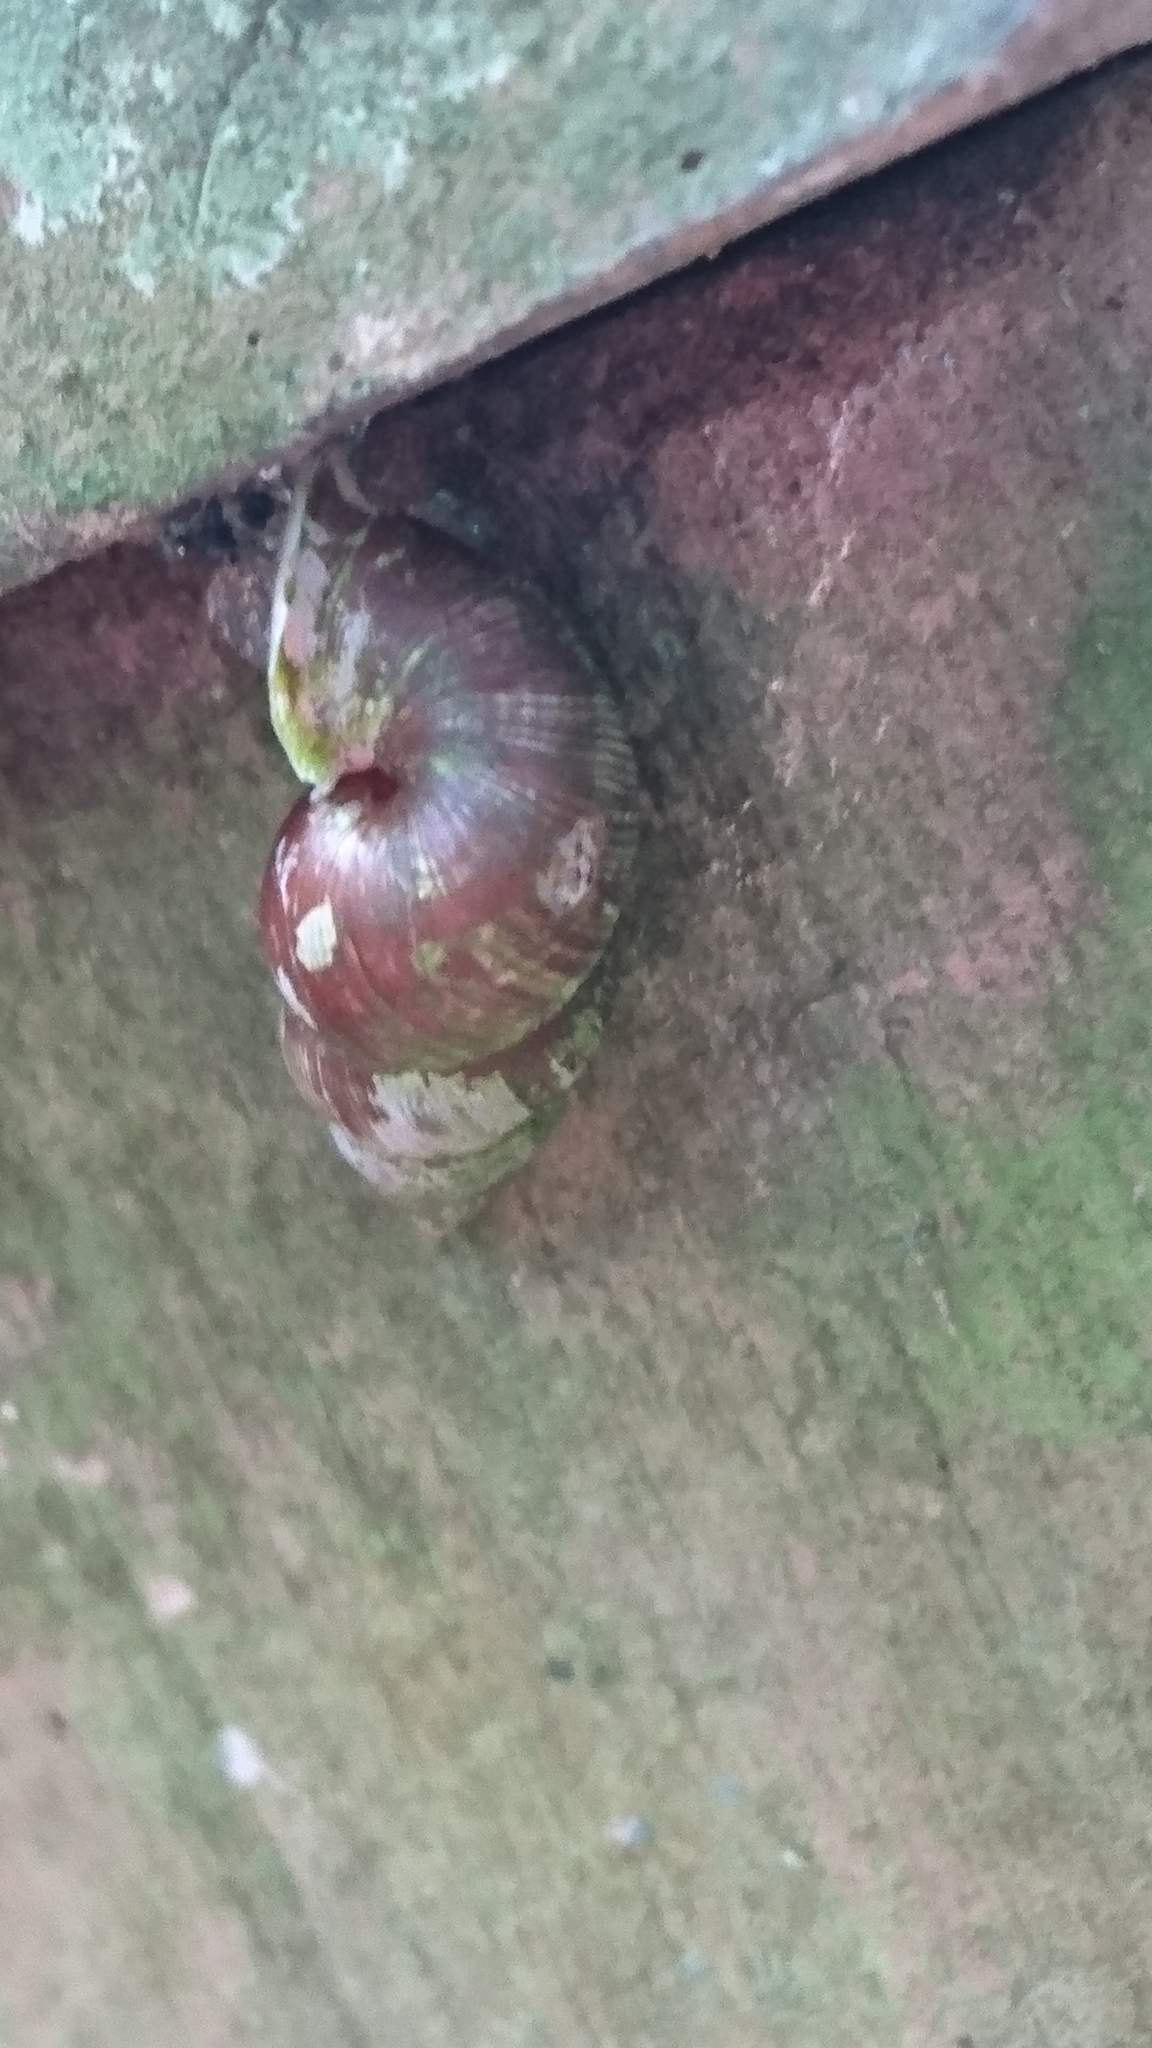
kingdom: Animalia
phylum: Mollusca
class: Gastropoda
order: Architaenioglossa
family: Pupinidae
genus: Coptocheilus
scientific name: Coptocheilus anostomus
